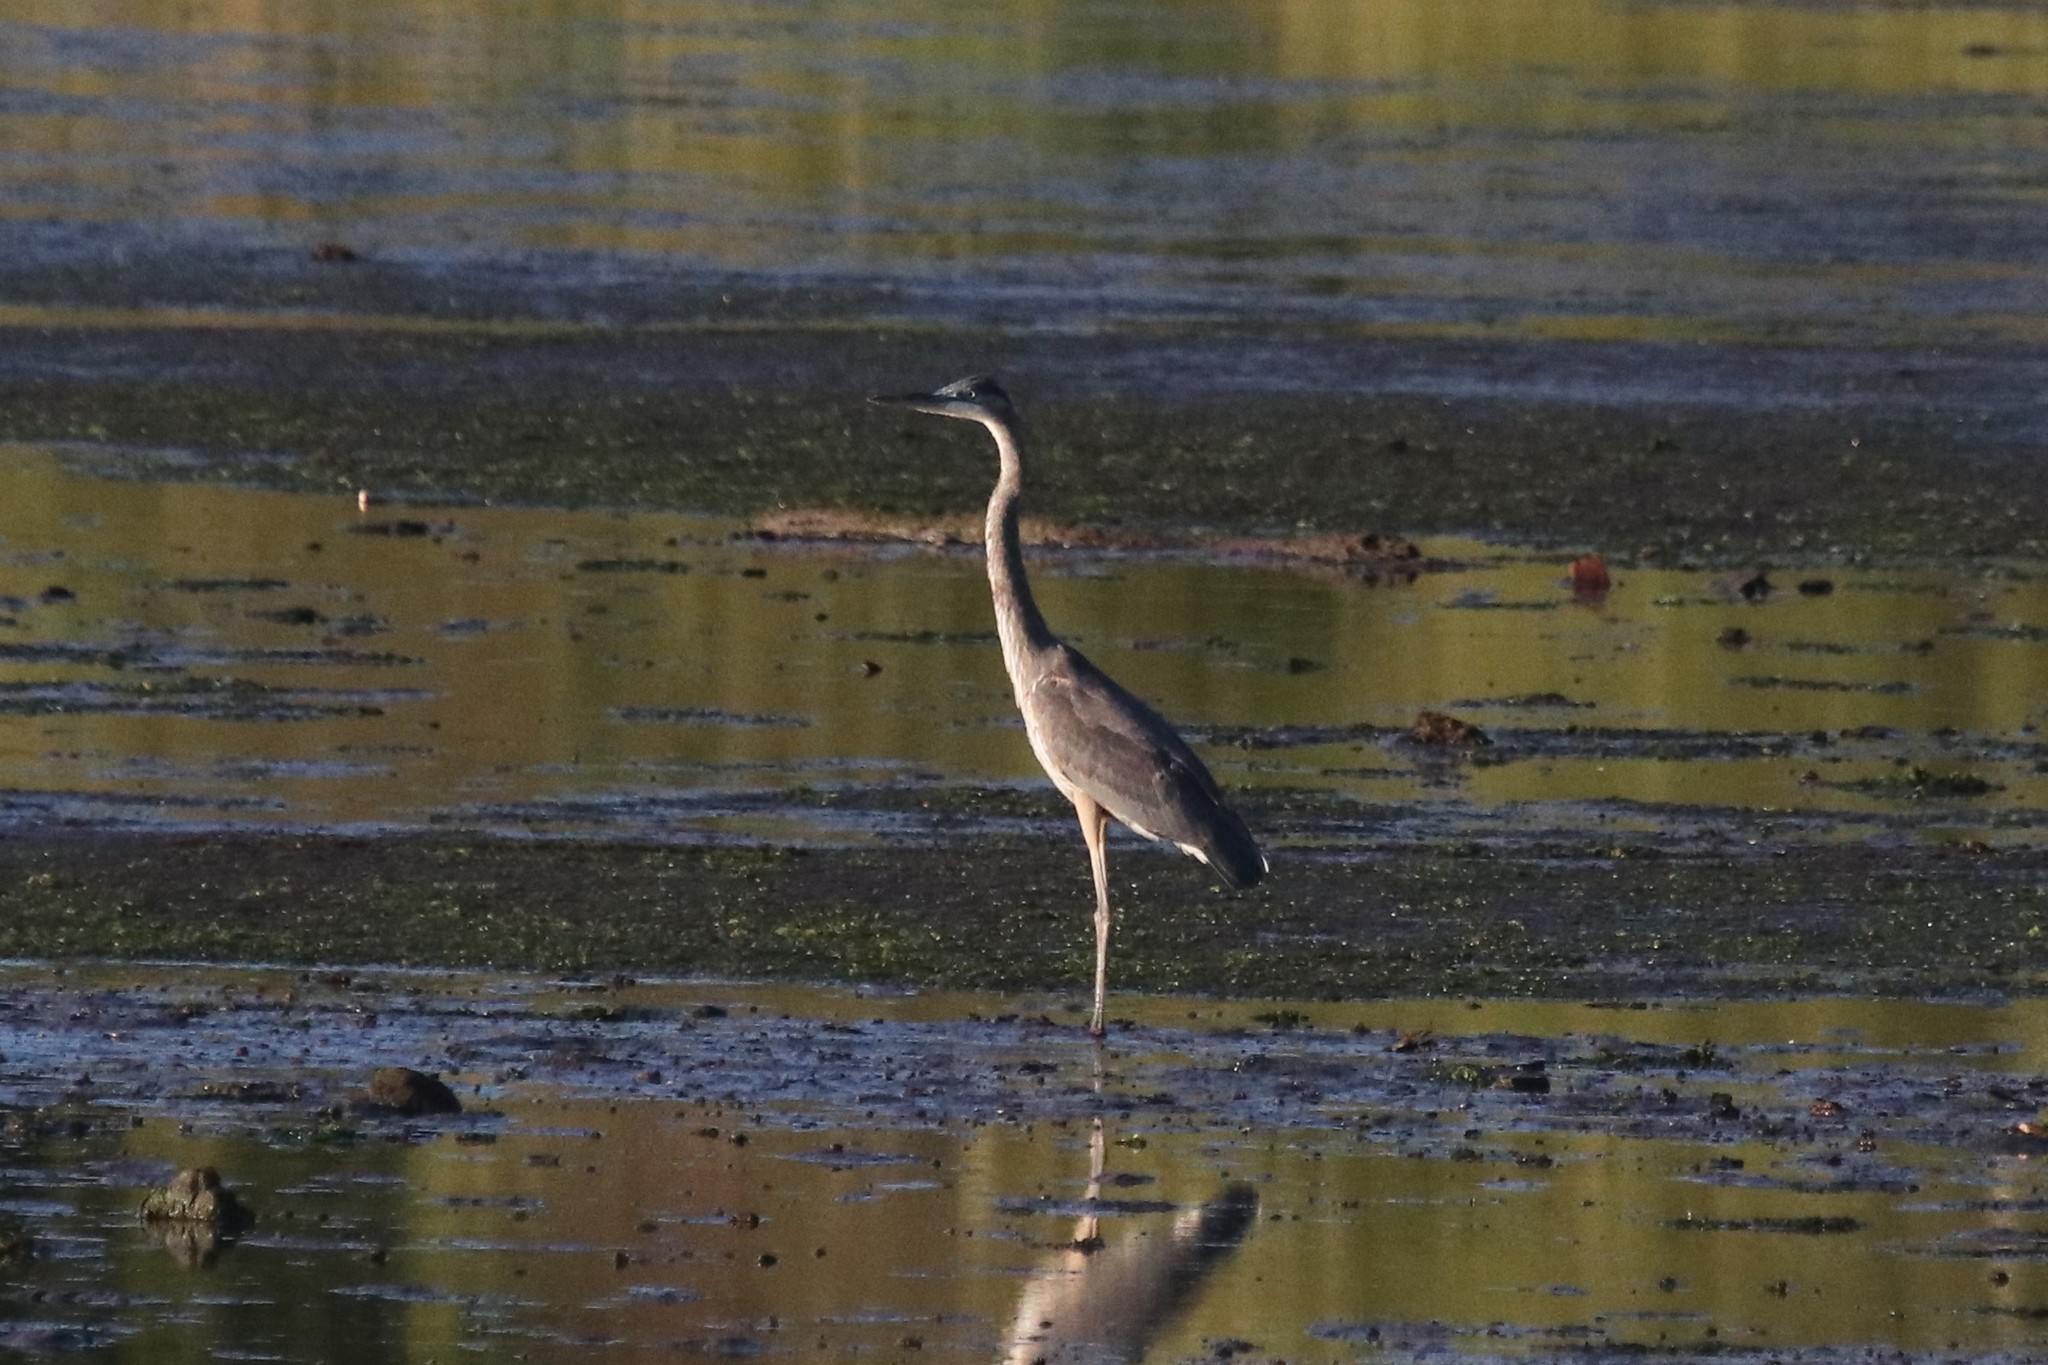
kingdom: Animalia
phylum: Chordata
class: Aves
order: Pelecaniformes
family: Ardeidae
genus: Ardea
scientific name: Ardea herodias
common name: Great blue heron
